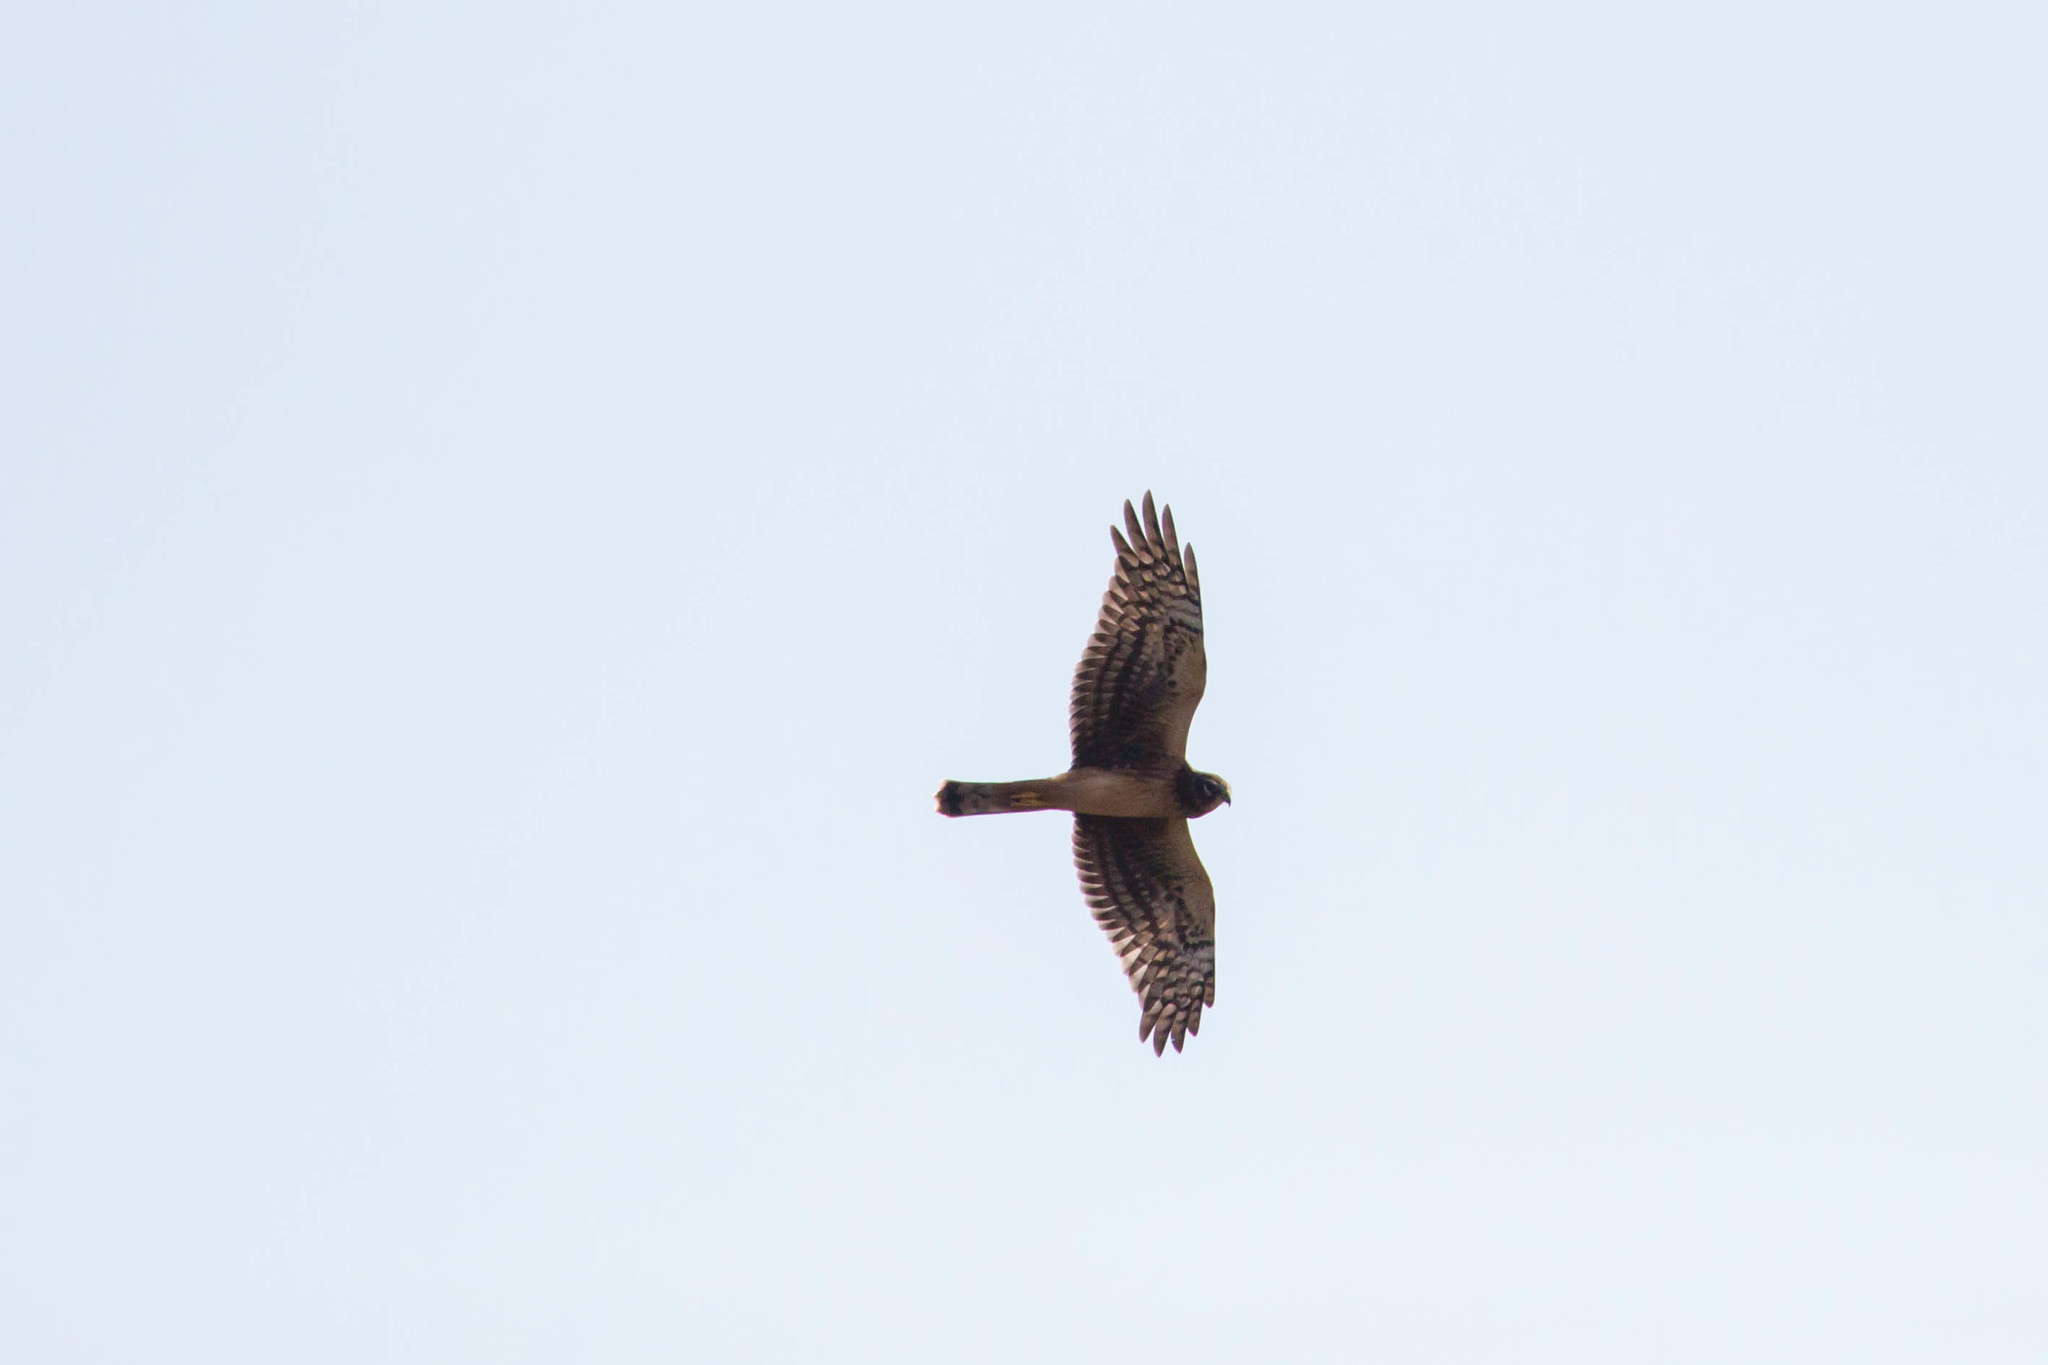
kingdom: Animalia
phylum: Chordata
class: Aves
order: Accipitriformes
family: Accipitridae
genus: Circus
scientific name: Circus cyaneus
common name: Hen harrier
